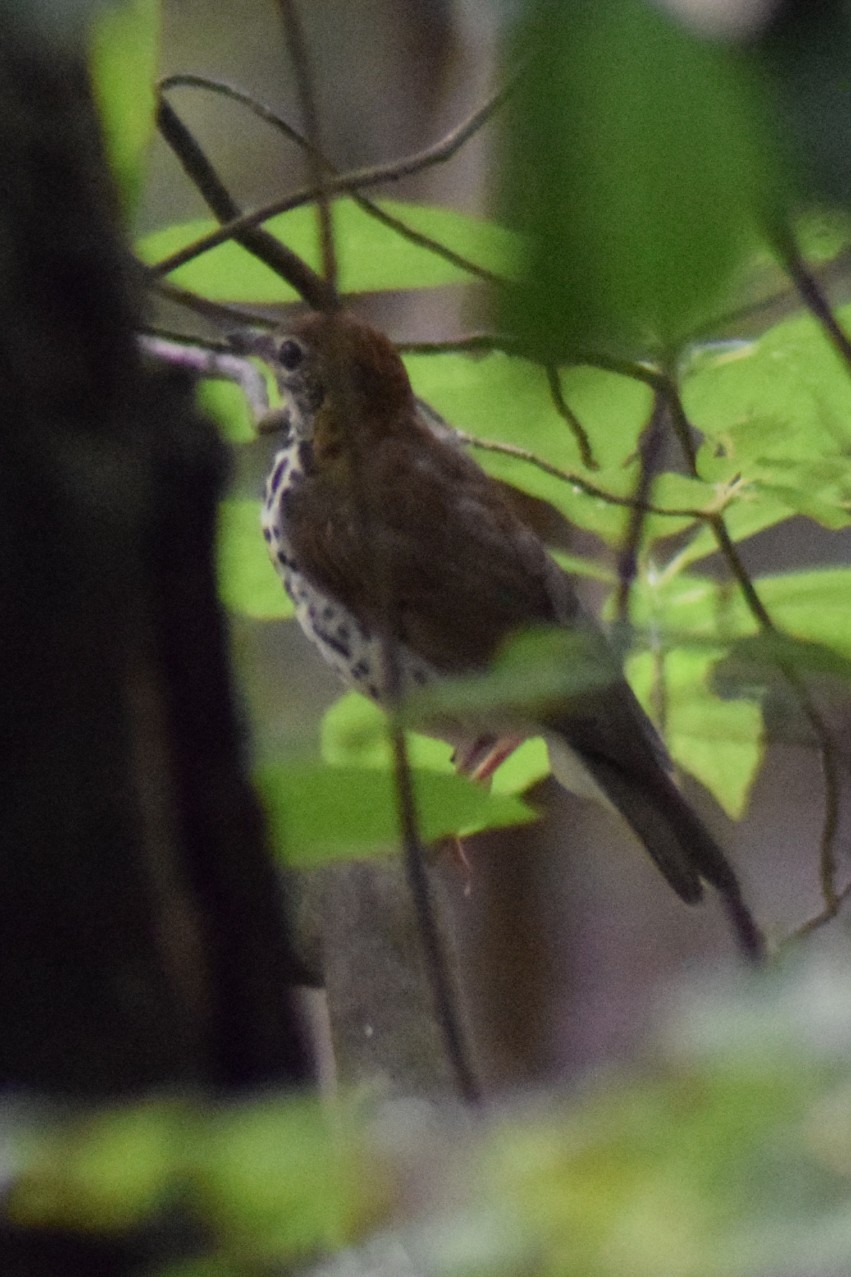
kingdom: Animalia
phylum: Chordata
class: Aves
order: Passeriformes
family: Turdidae
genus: Hylocichla
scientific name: Hylocichla mustelina
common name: Wood thrush
